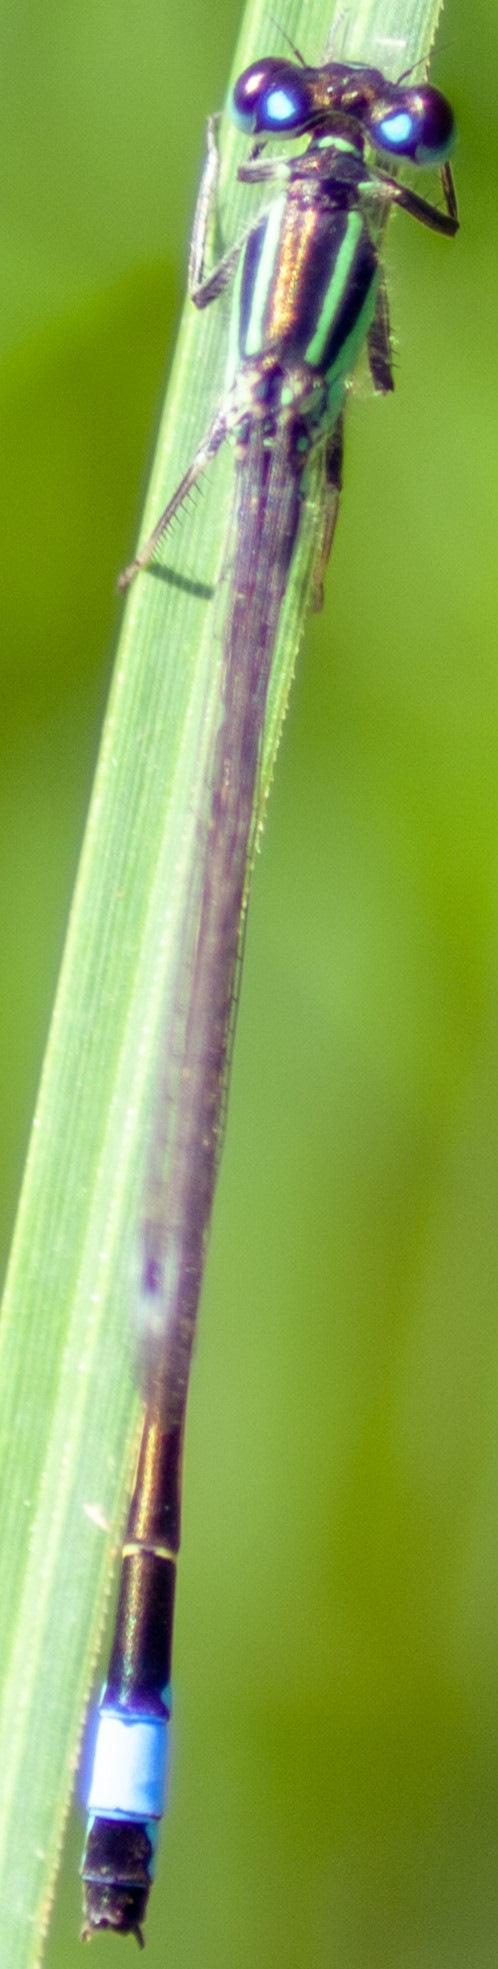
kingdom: Animalia
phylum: Arthropoda
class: Insecta
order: Odonata
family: Coenagrionidae
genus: Ischnura
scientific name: Ischnura elegans
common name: Blue-tailed damselfly
